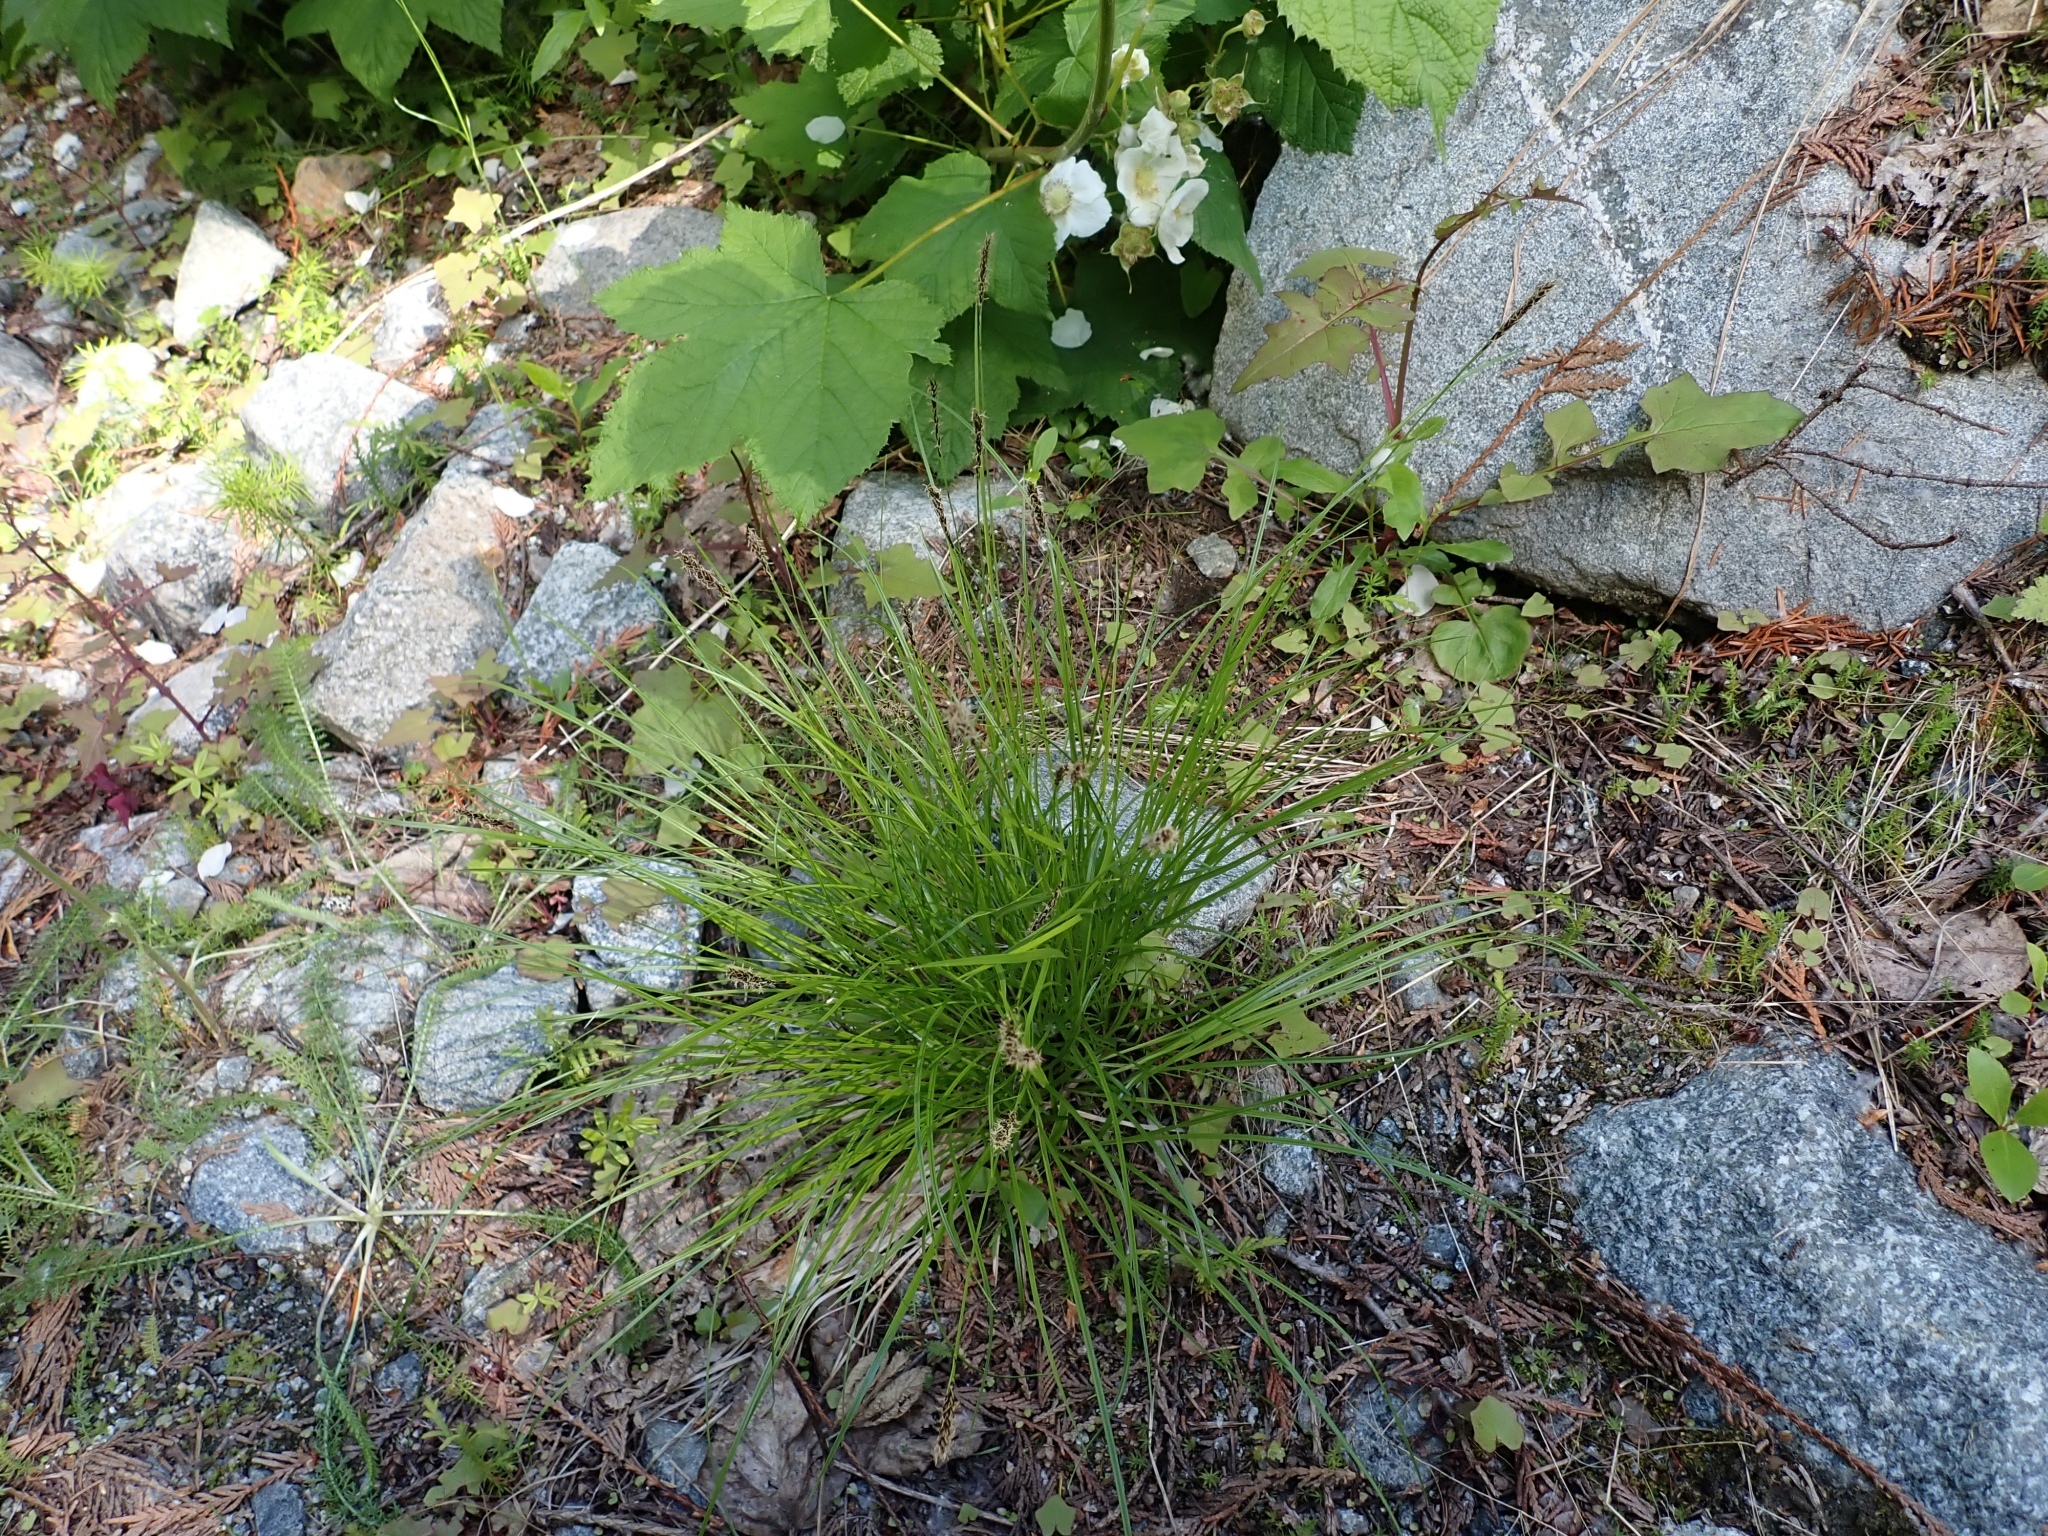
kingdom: Plantae
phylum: Tracheophyta
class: Liliopsida
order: Poales
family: Cyperaceae
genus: Carex
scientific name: Carex scirpoidea
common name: Canada single-spike sedge
